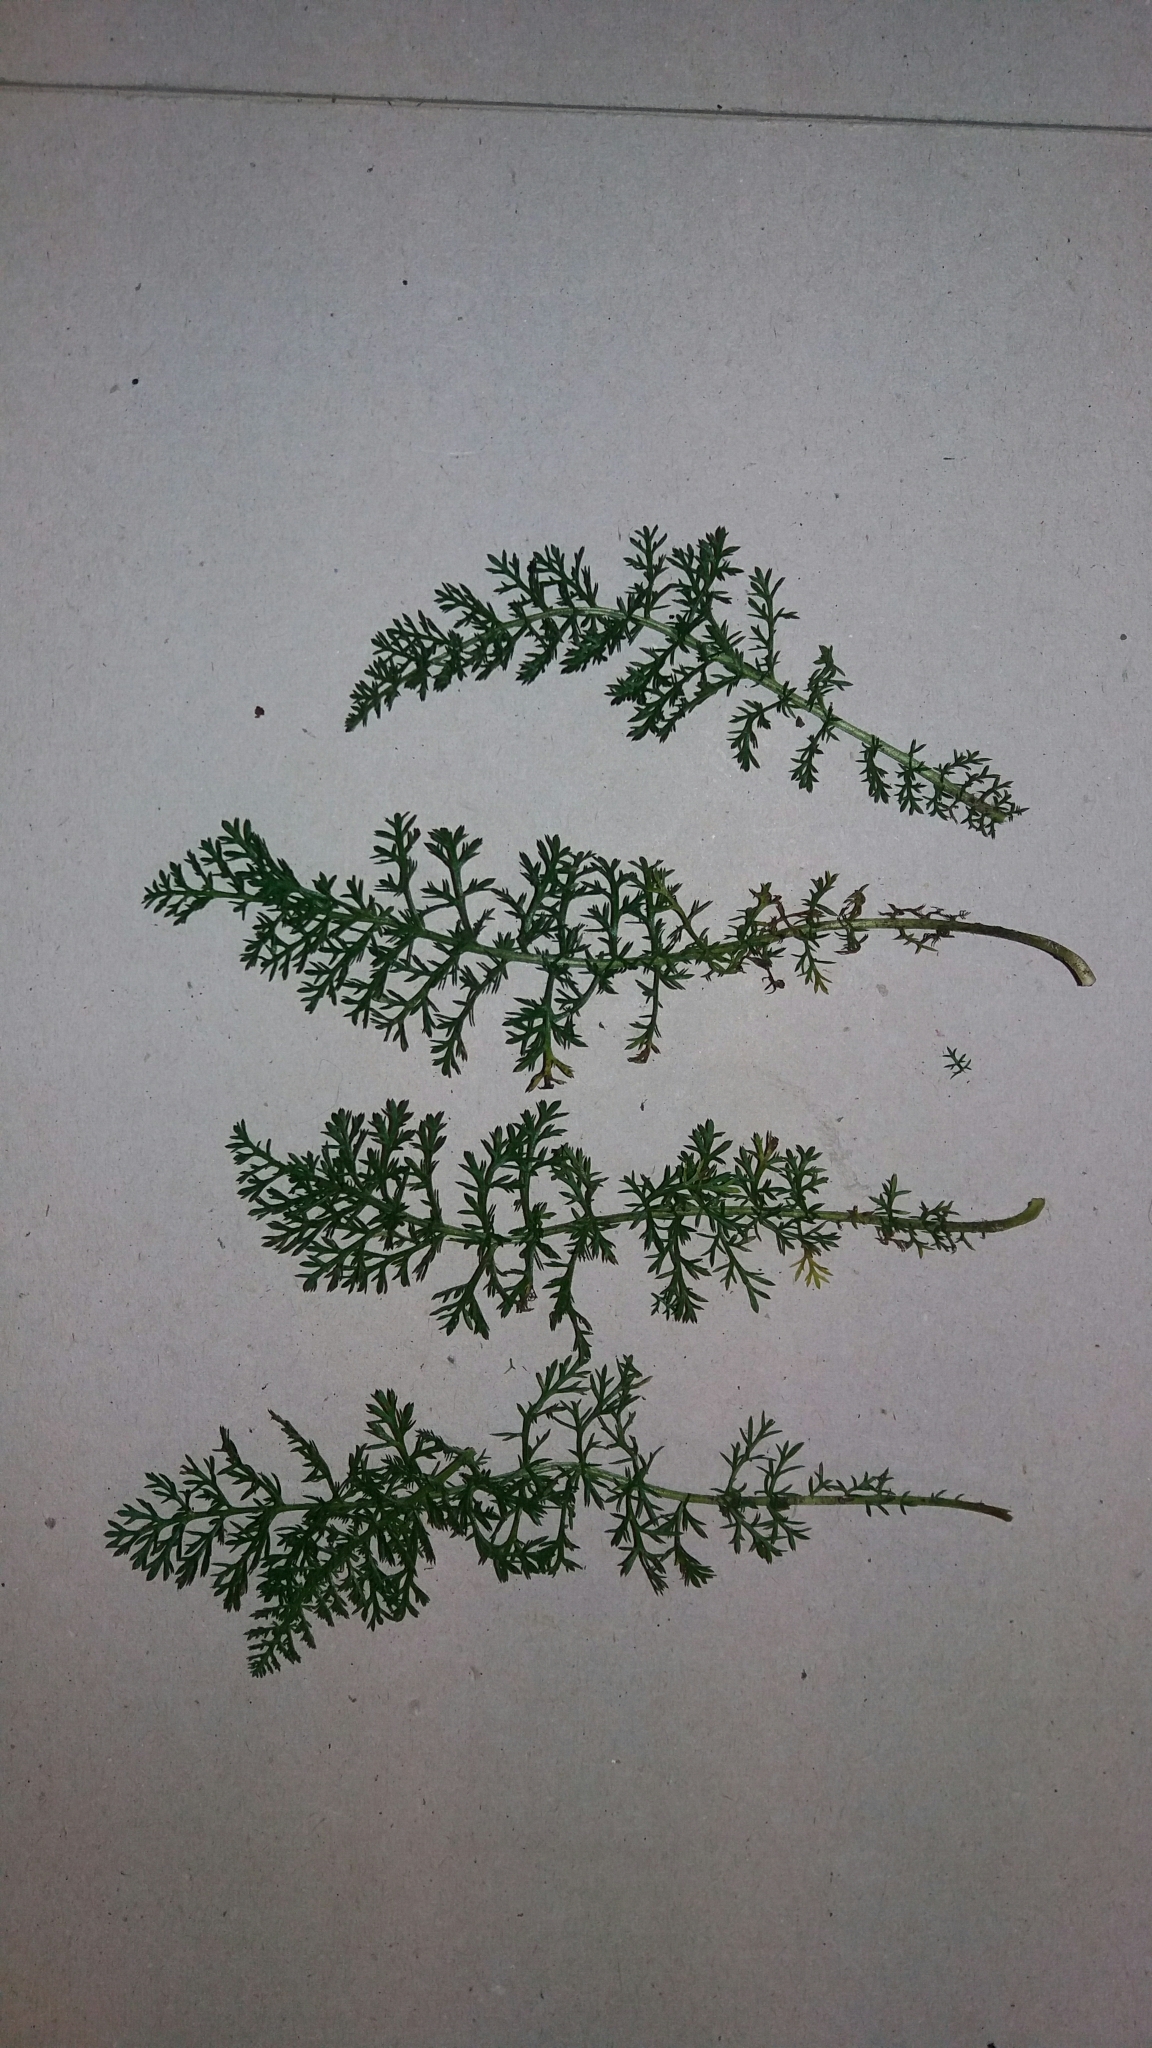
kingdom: Plantae
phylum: Tracheophyta
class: Magnoliopsida
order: Asterales
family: Asteraceae
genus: Achillea
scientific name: Achillea millefolium
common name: Yarrow
